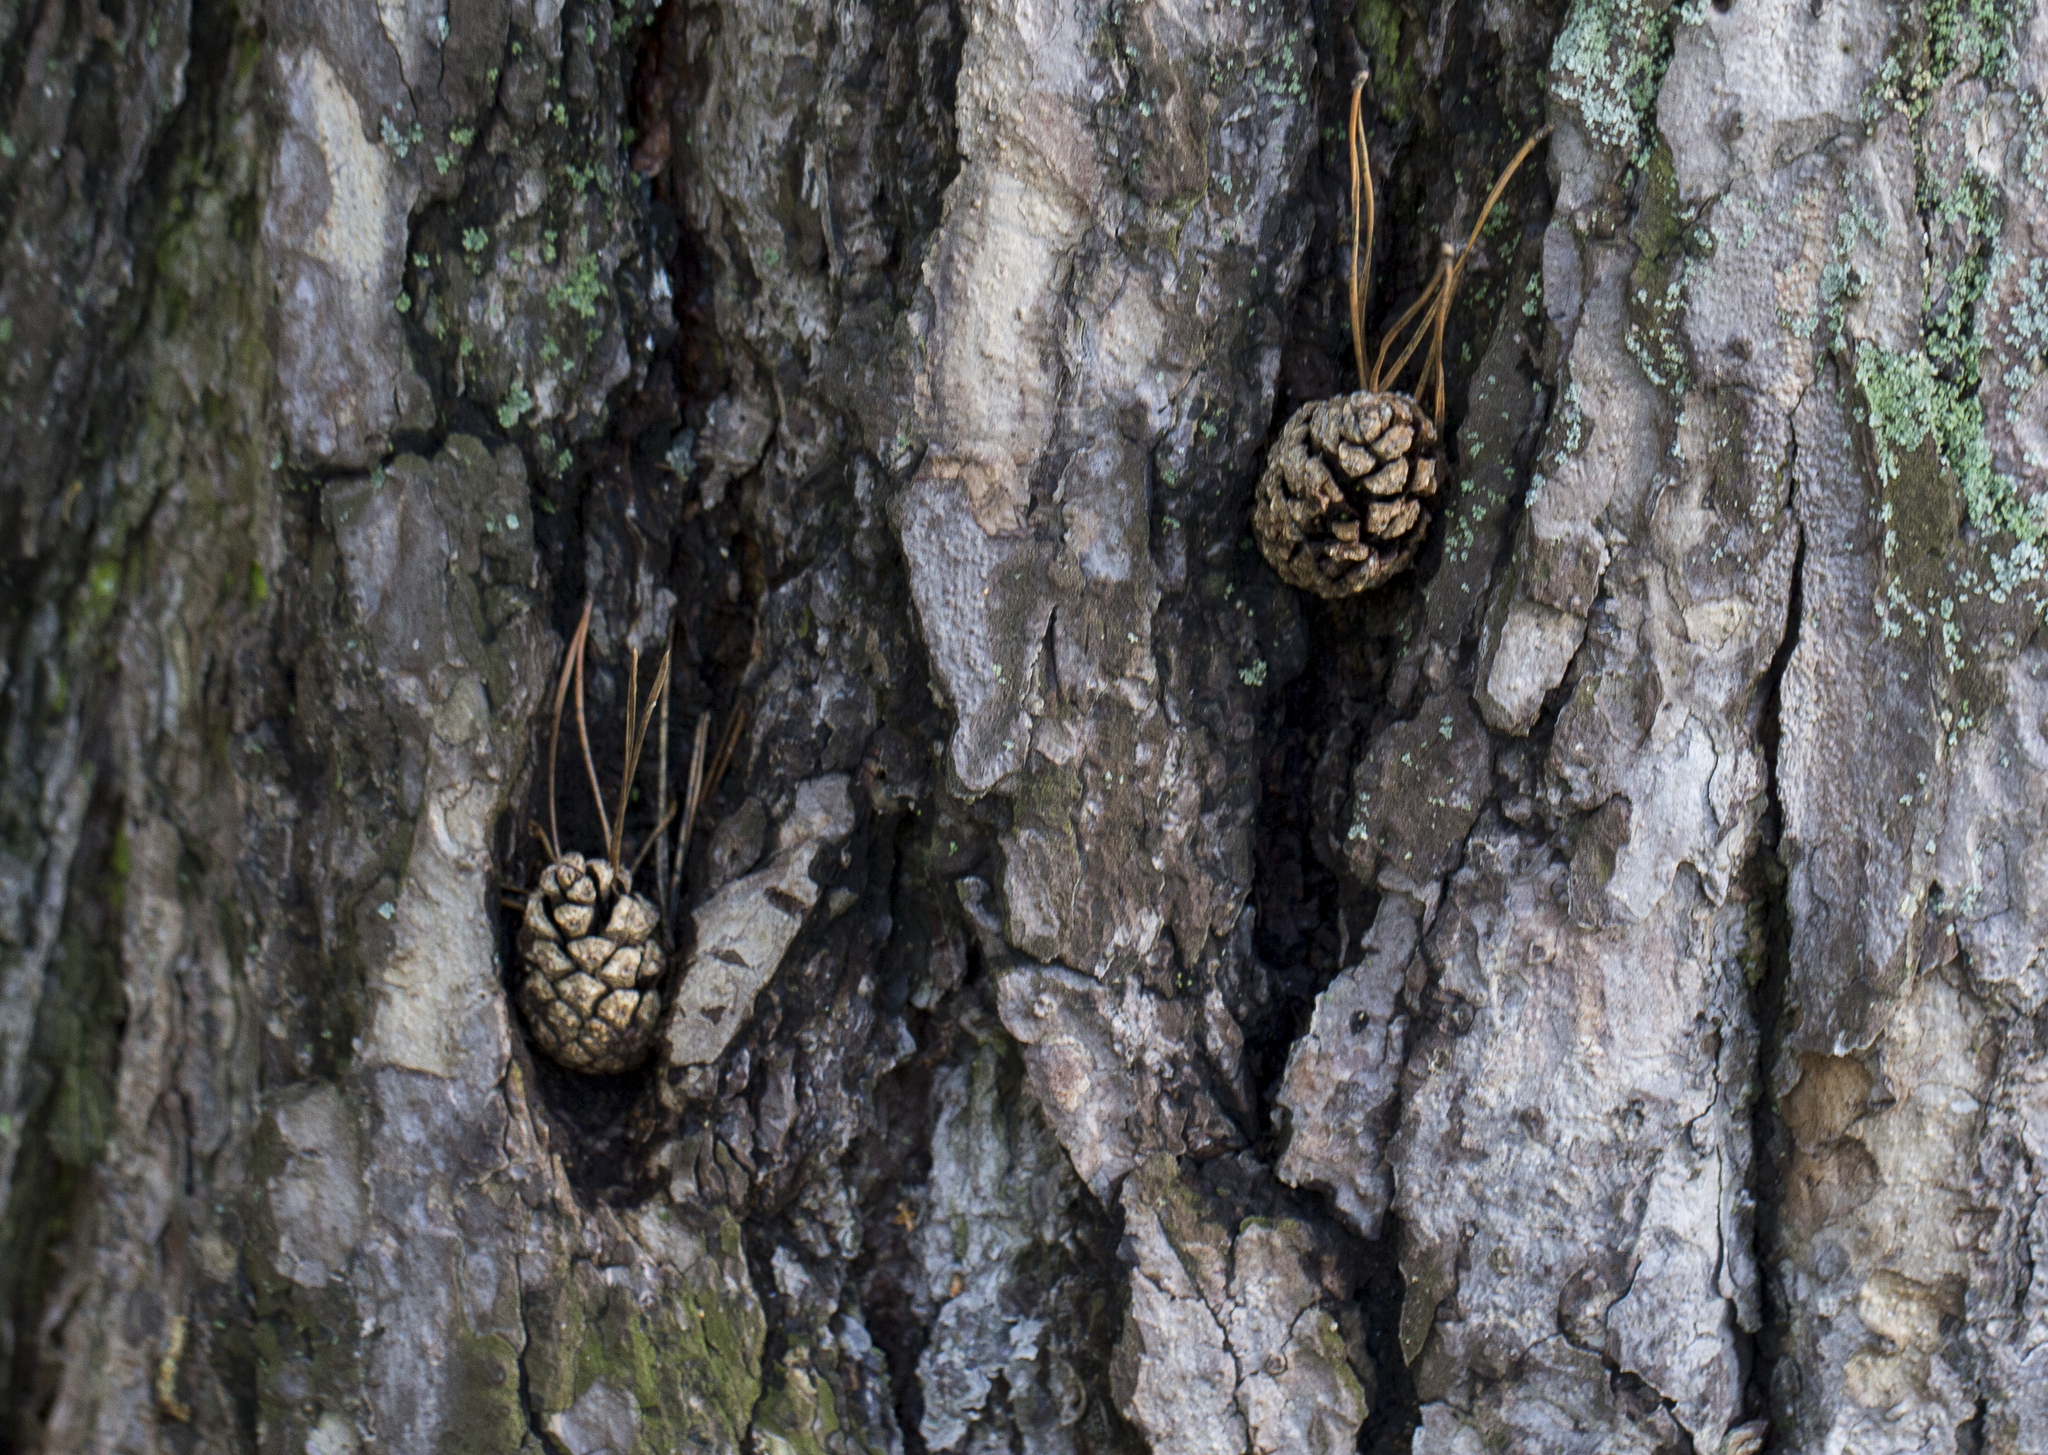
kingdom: Plantae
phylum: Tracheophyta
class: Pinopsida
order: Pinales
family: Pinaceae
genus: Pinus
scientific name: Pinus sylvestris
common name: Scots pine
